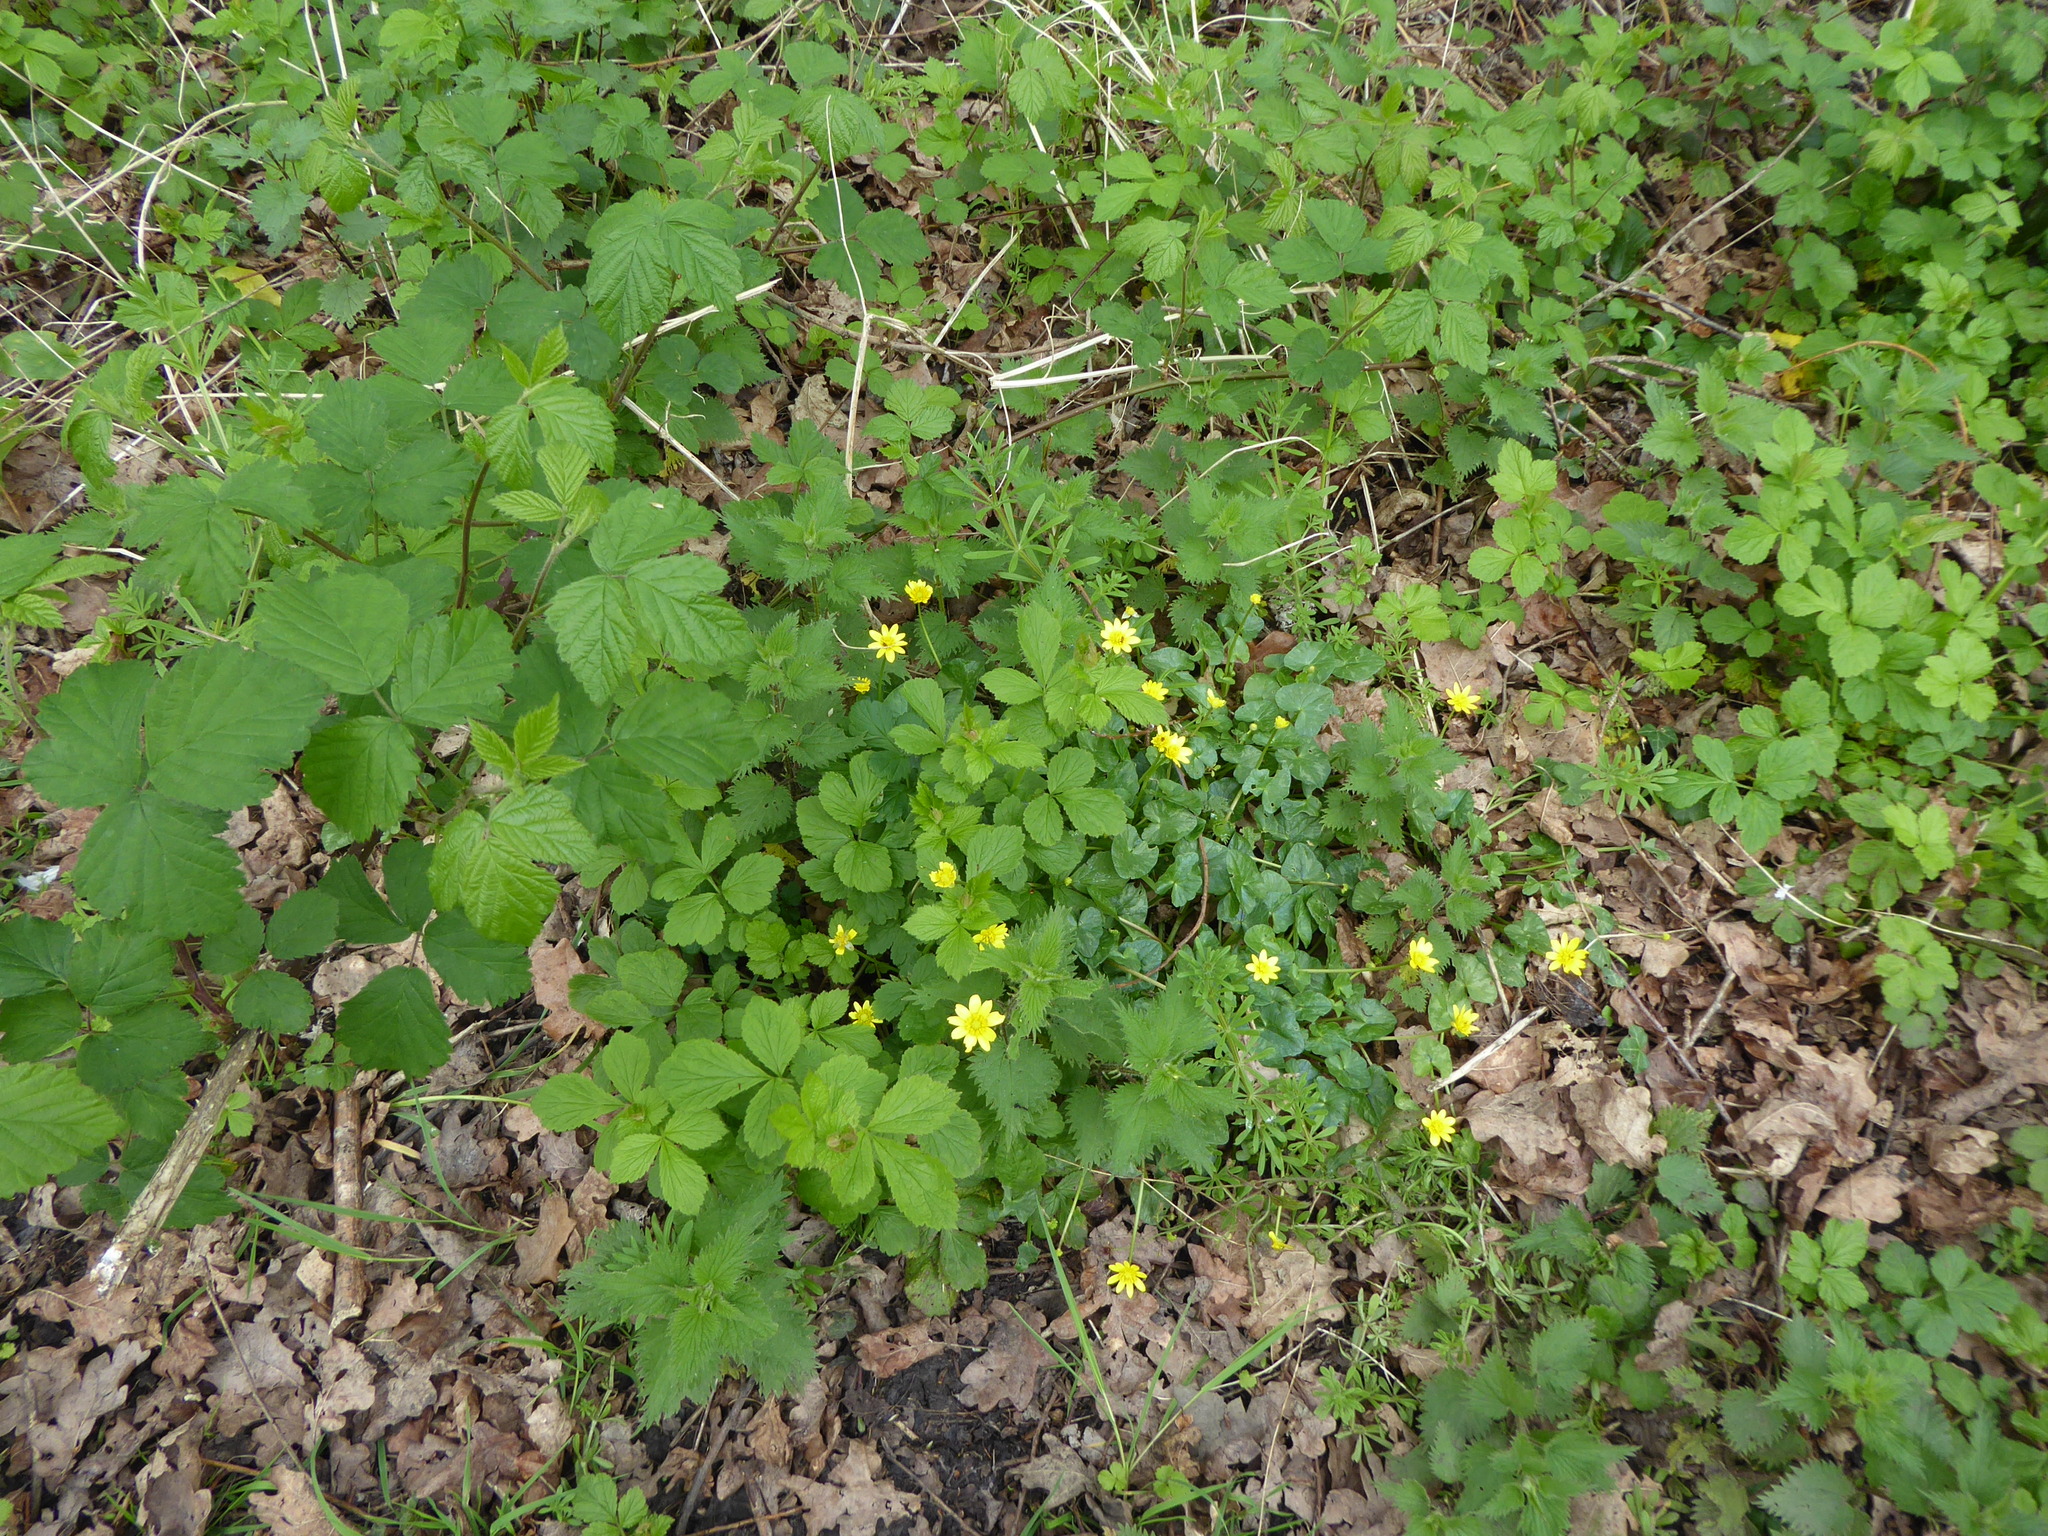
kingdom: Plantae
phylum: Tracheophyta
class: Magnoliopsida
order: Ranunculales
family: Ranunculaceae
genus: Ficaria
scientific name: Ficaria verna
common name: Lesser celandine
